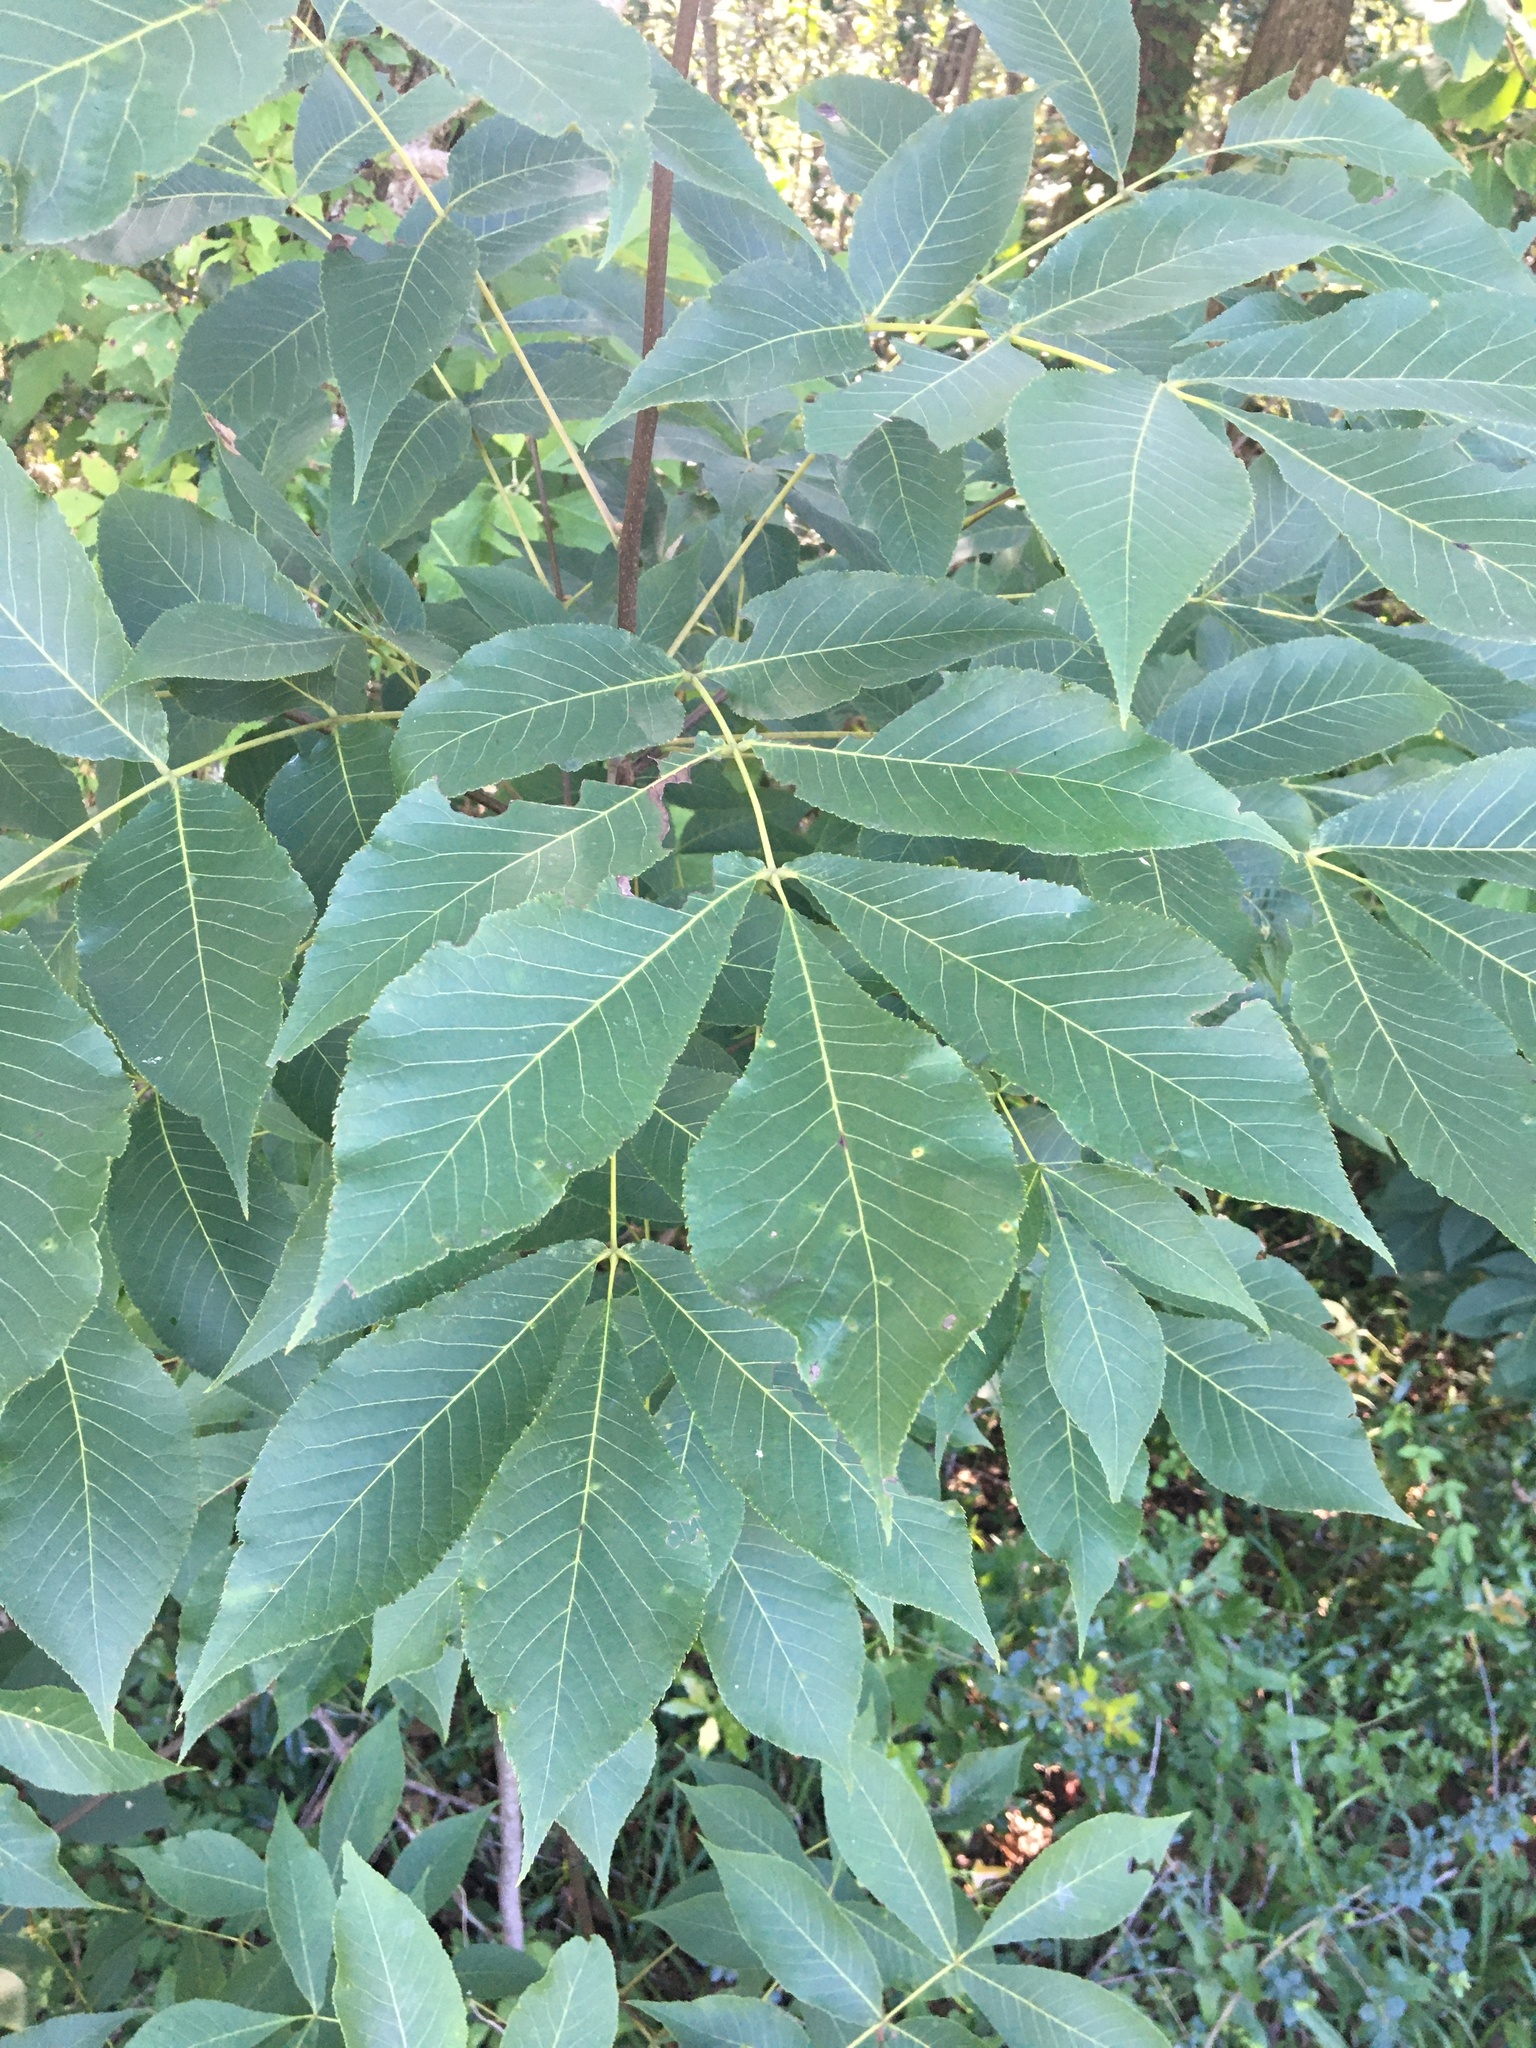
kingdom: Plantae
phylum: Tracheophyta
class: Magnoliopsida
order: Fagales
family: Juglandaceae
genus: Carya
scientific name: Carya alba
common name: Mockernut hickory
